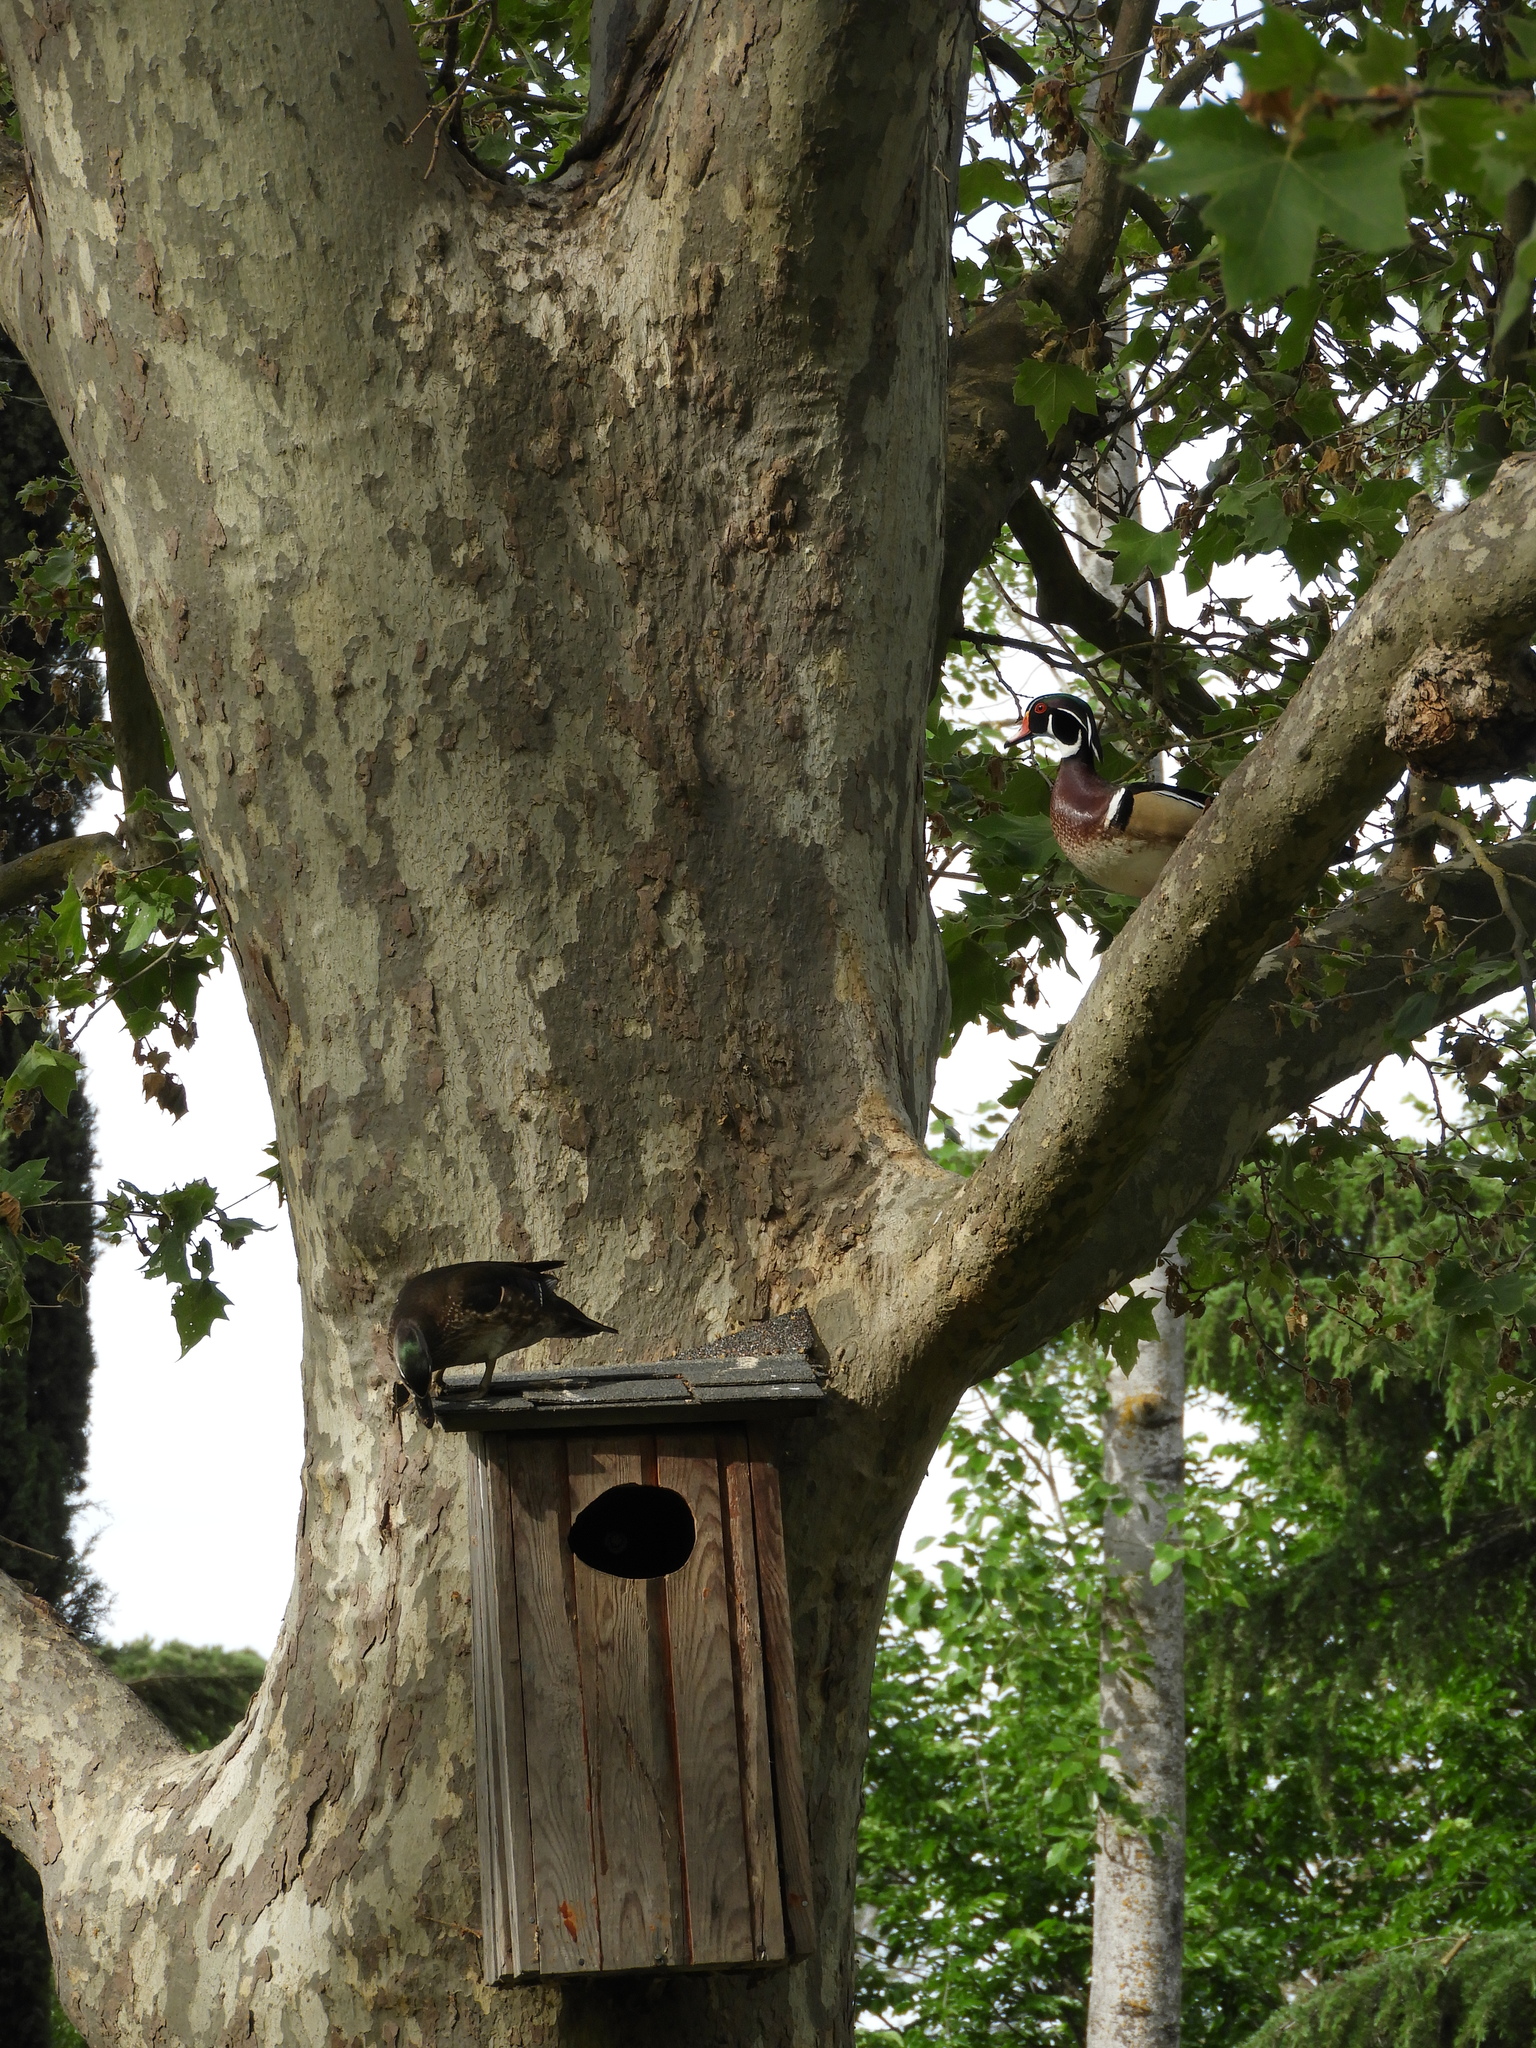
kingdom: Animalia
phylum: Chordata
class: Aves
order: Anseriformes
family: Anatidae
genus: Aix
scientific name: Aix sponsa
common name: Wood duck
